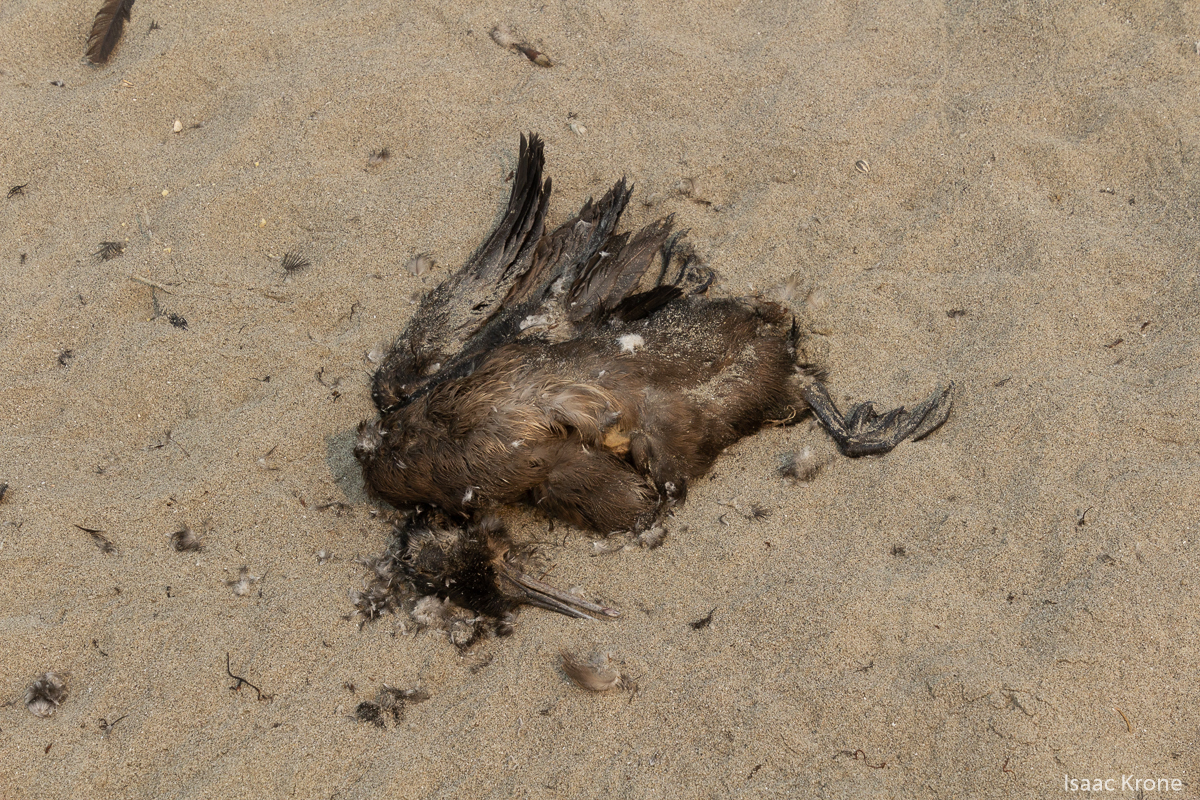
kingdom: Animalia
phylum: Chordata
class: Aves
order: Suliformes
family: Phalacrocoracidae
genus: Urile
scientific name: Urile penicillatus
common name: Brandt's cormorant
